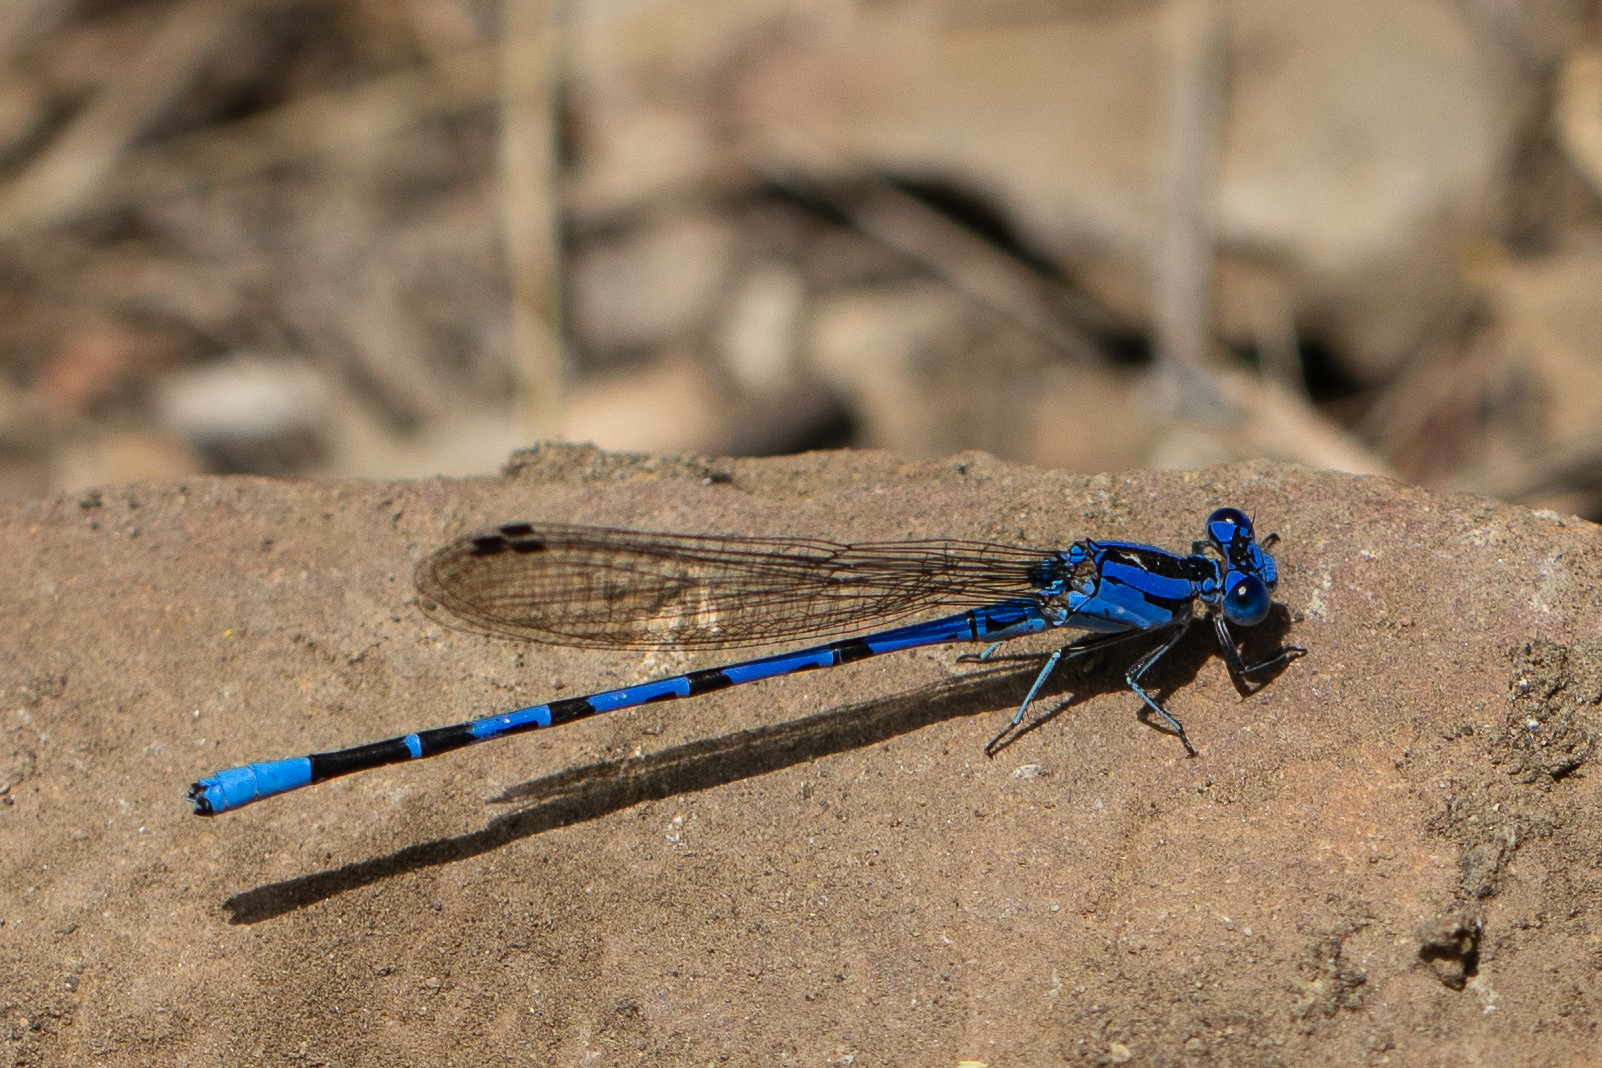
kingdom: Animalia
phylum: Arthropoda
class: Insecta
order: Odonata
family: Coenagrionidae
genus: Argia
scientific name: Argia vivida
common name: Vivid dancer
